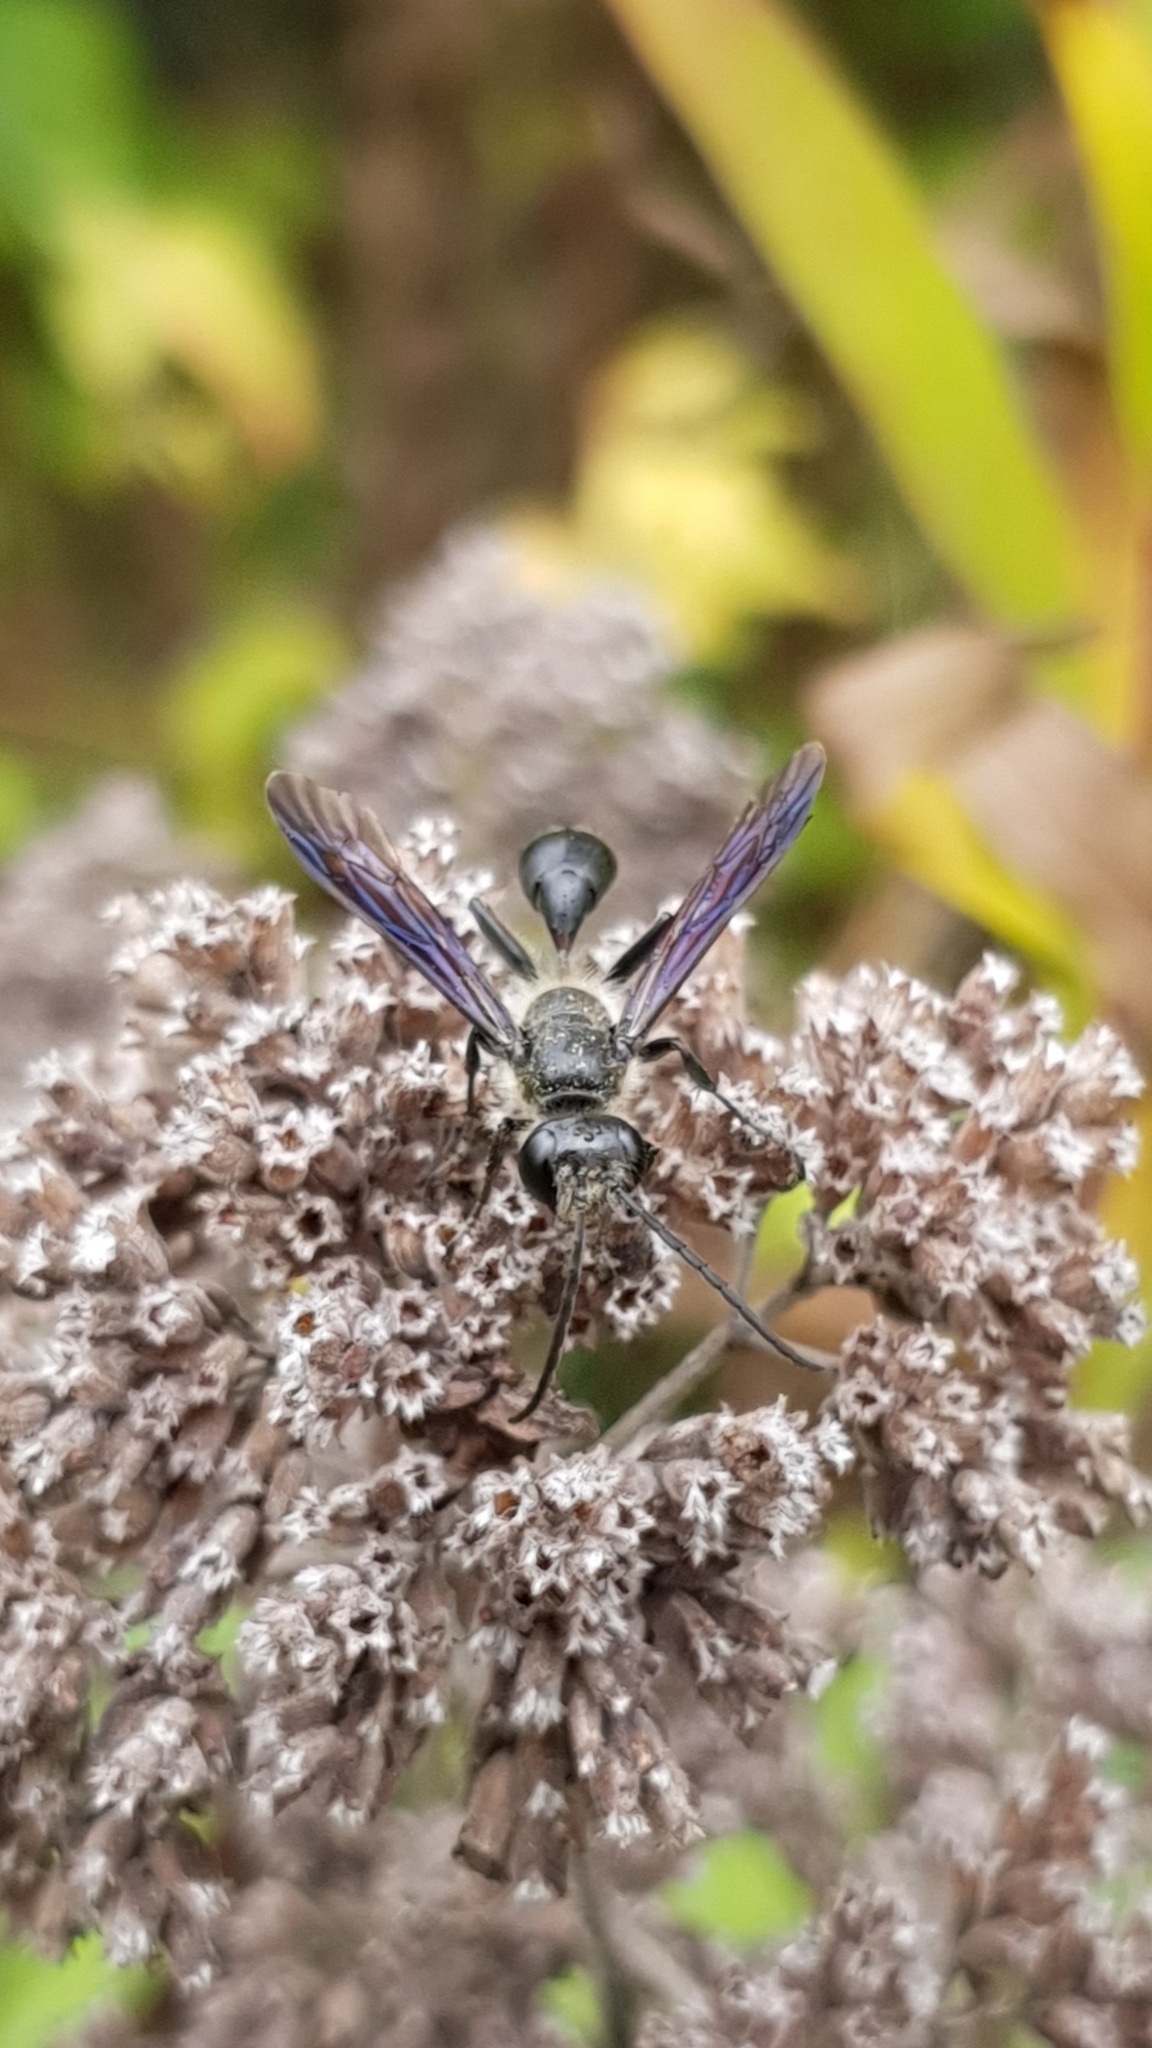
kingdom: Animalia
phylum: Arthropoda
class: Insecta
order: Hymenoptera
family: Sphecidae
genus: Isodontia
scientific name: Isodontia mexicana
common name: Mud dauber
